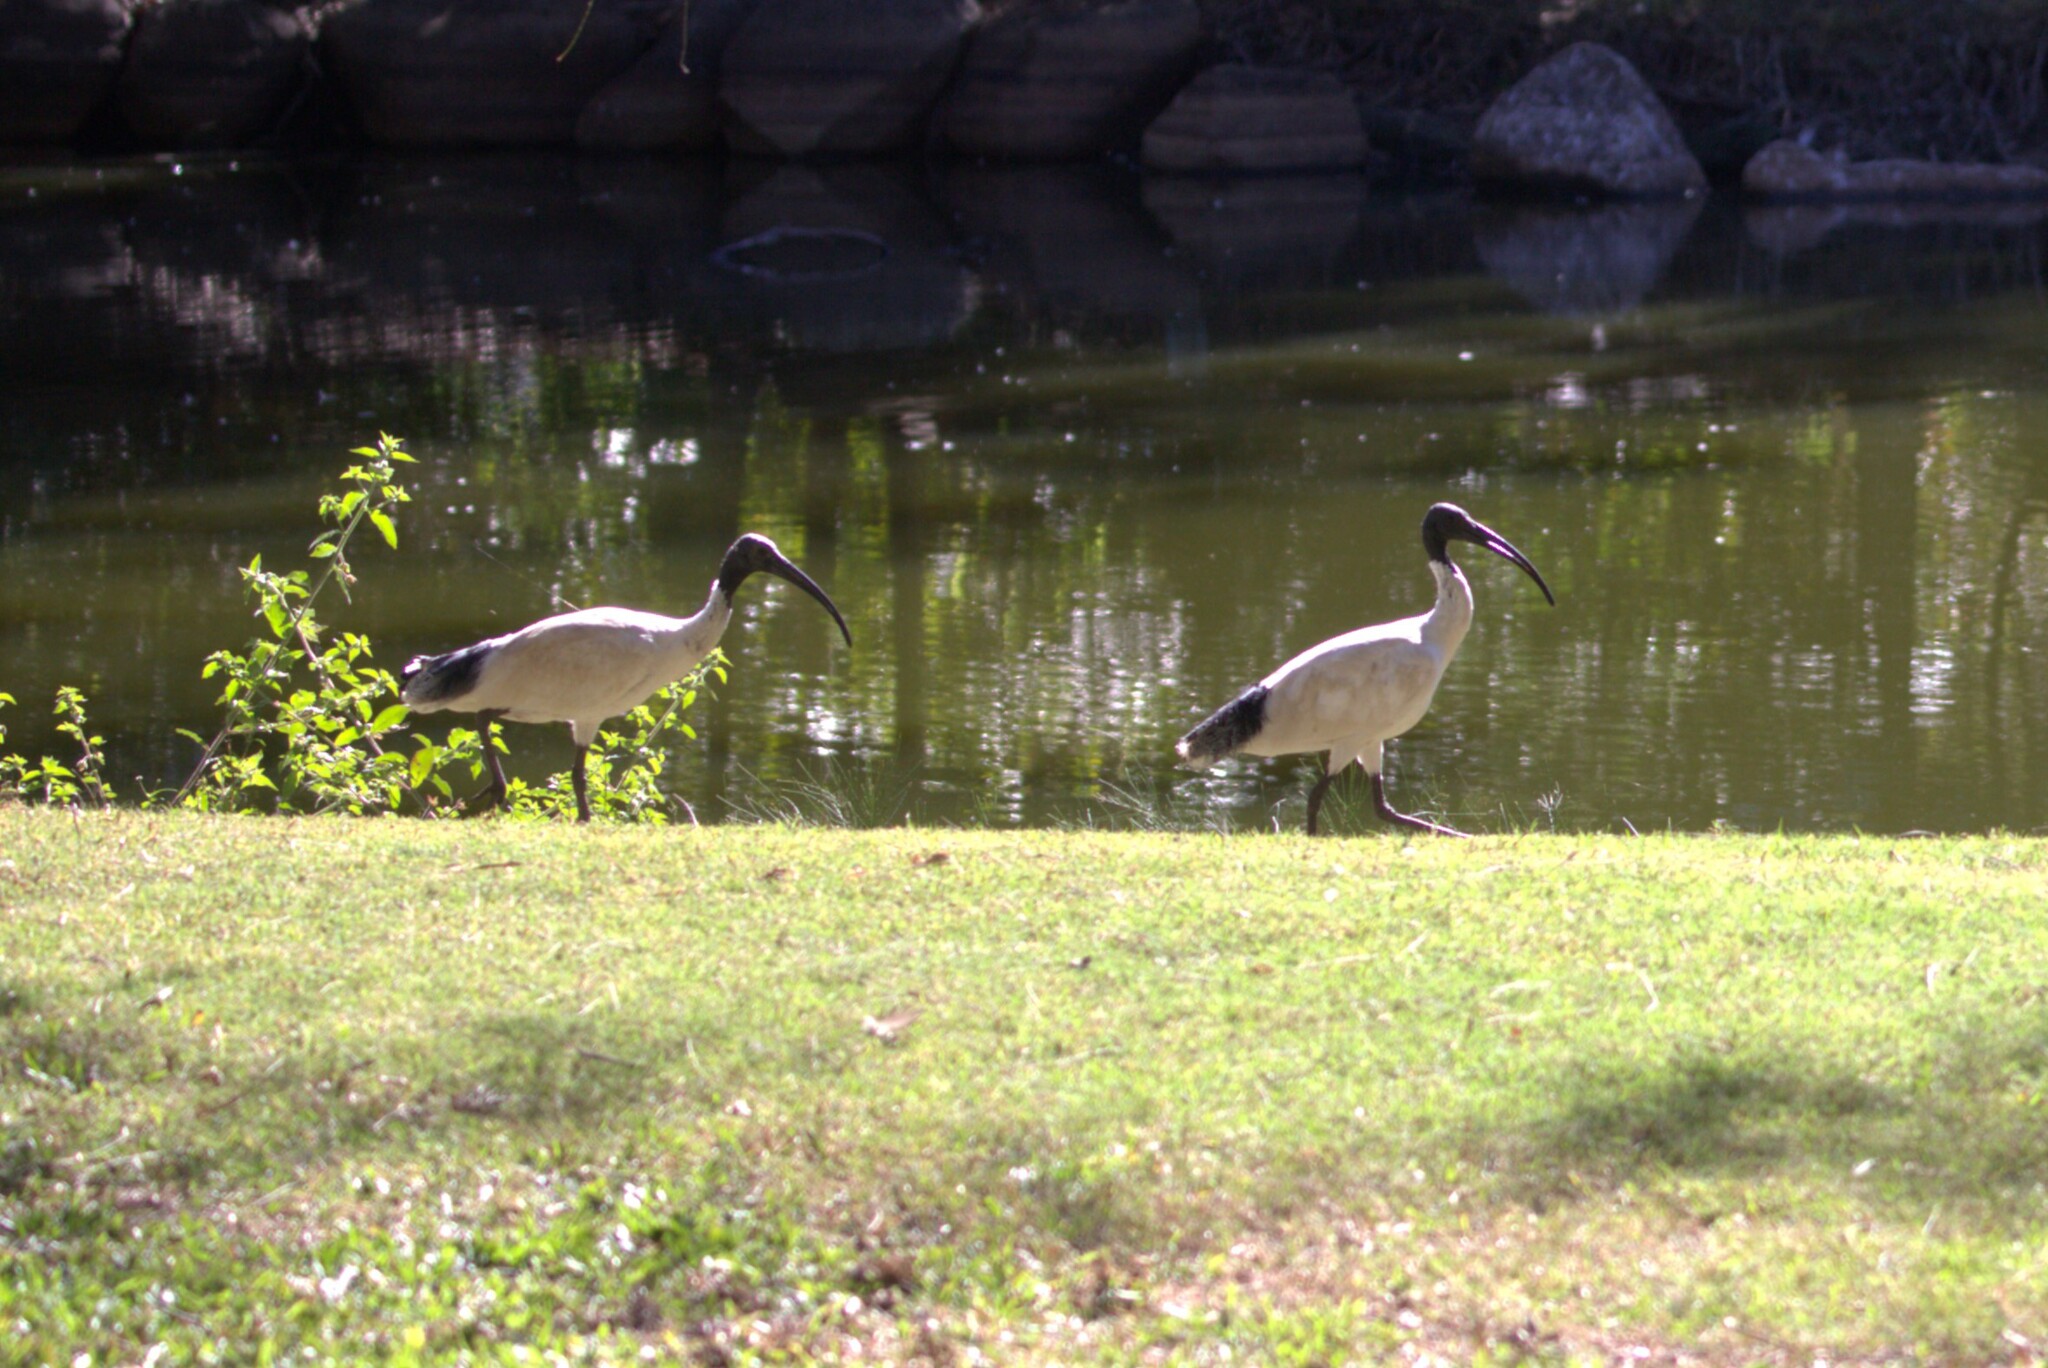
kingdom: Animalia
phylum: Chordata
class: Aves
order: Pelecaniformes
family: Threskiornithidae
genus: Threskiornis
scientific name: Threskiornis molucca
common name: Australian white ibis
